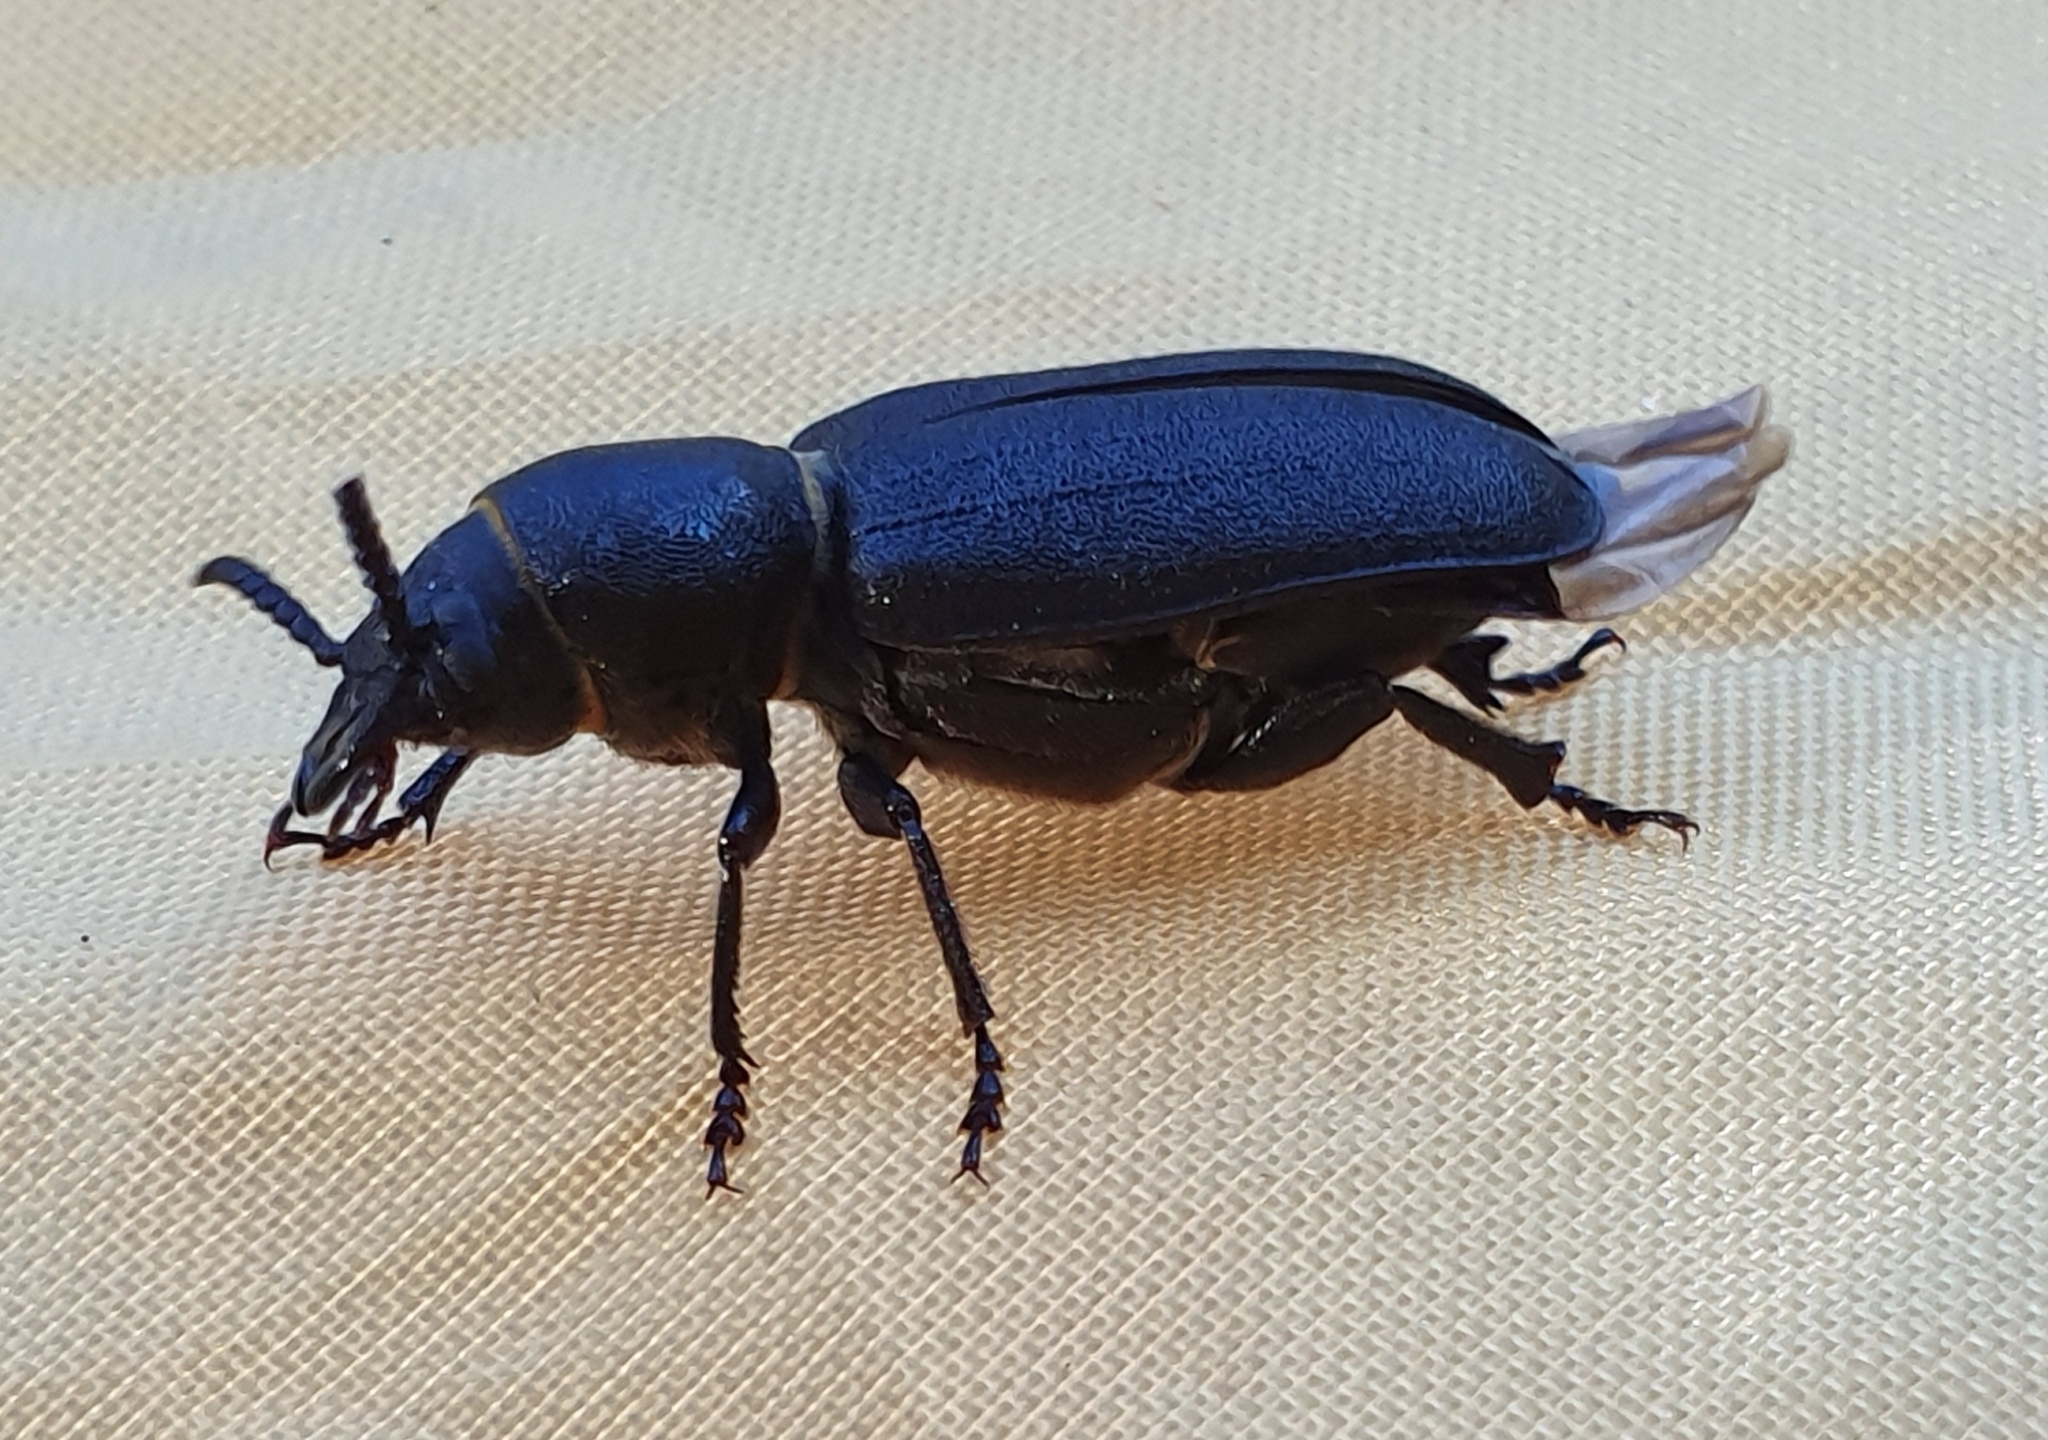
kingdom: Animalia
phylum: Arthropoda
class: Insecta
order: Coleoptera
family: Cerambycidae
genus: Spondylis
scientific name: Spondylis buprestoides
